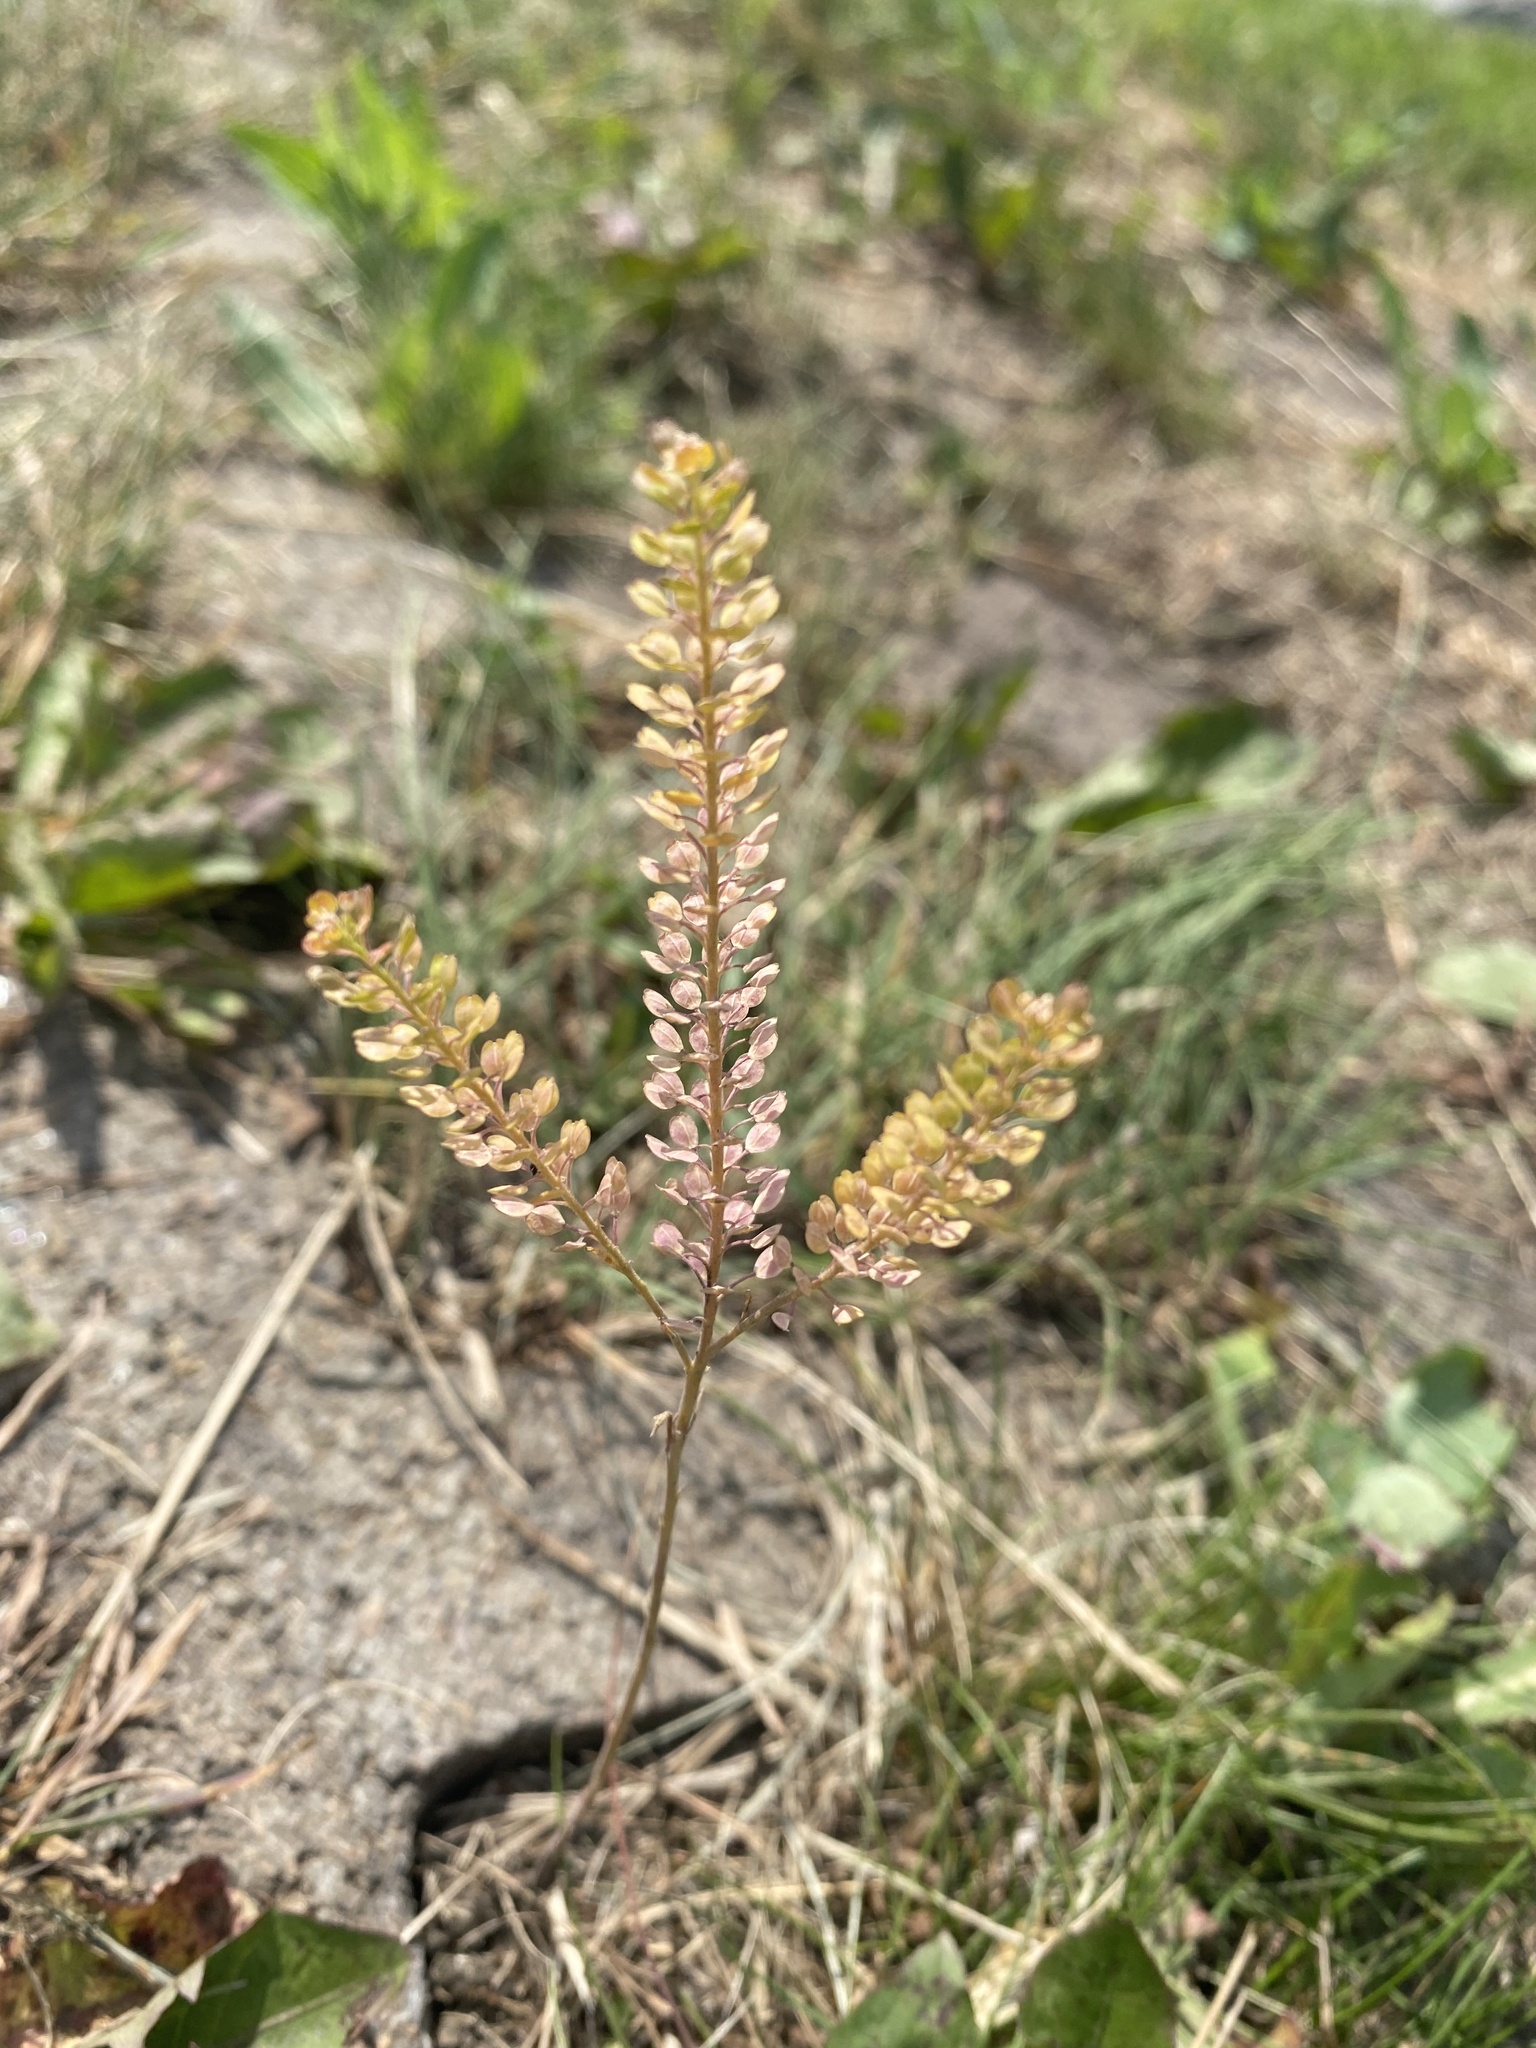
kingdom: Plantae
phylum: Tracheophyta
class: Magnoliopsida
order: Brassicales
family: Brassicaceae
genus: Lepidium
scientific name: Lepidium densiflorum
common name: Miner's pepperwort
